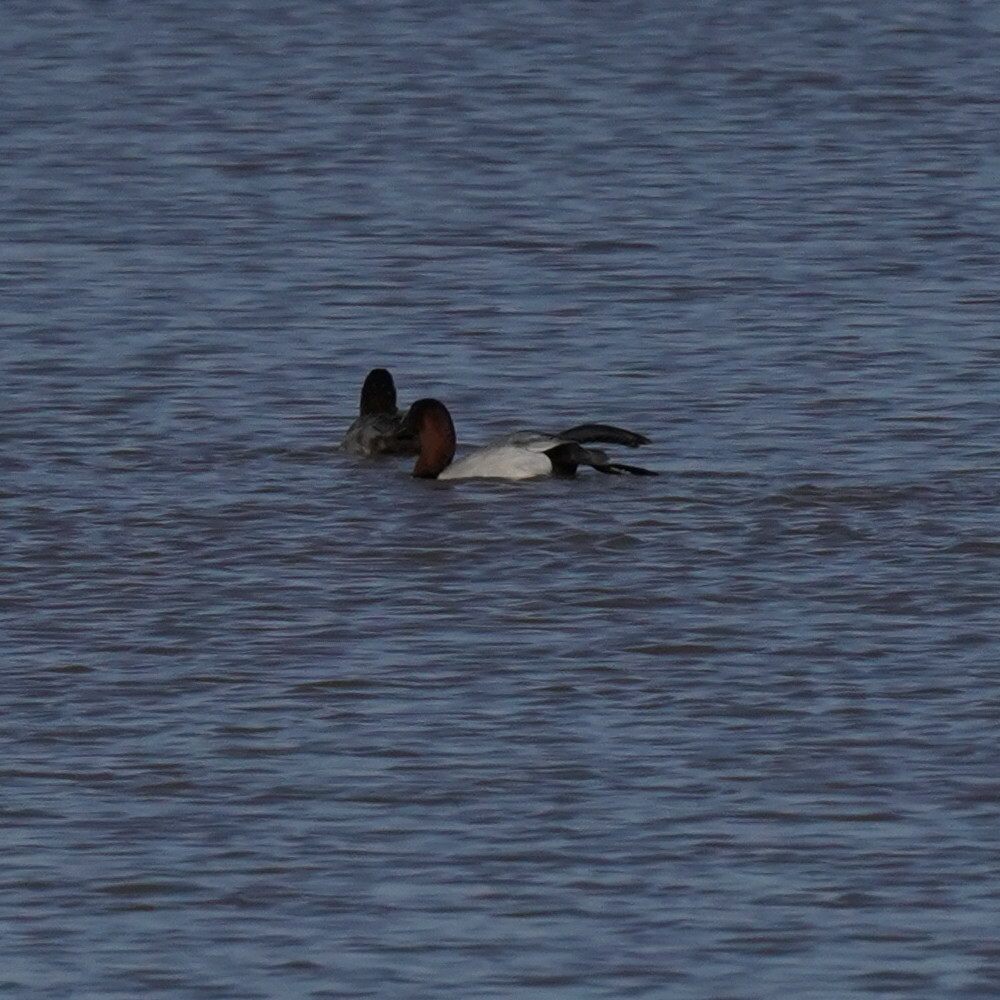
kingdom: Animalia
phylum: Chordata
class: Aves
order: Anseriformes
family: Anatidae
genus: Aythya
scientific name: Aythya valisineria
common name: Canvasback
